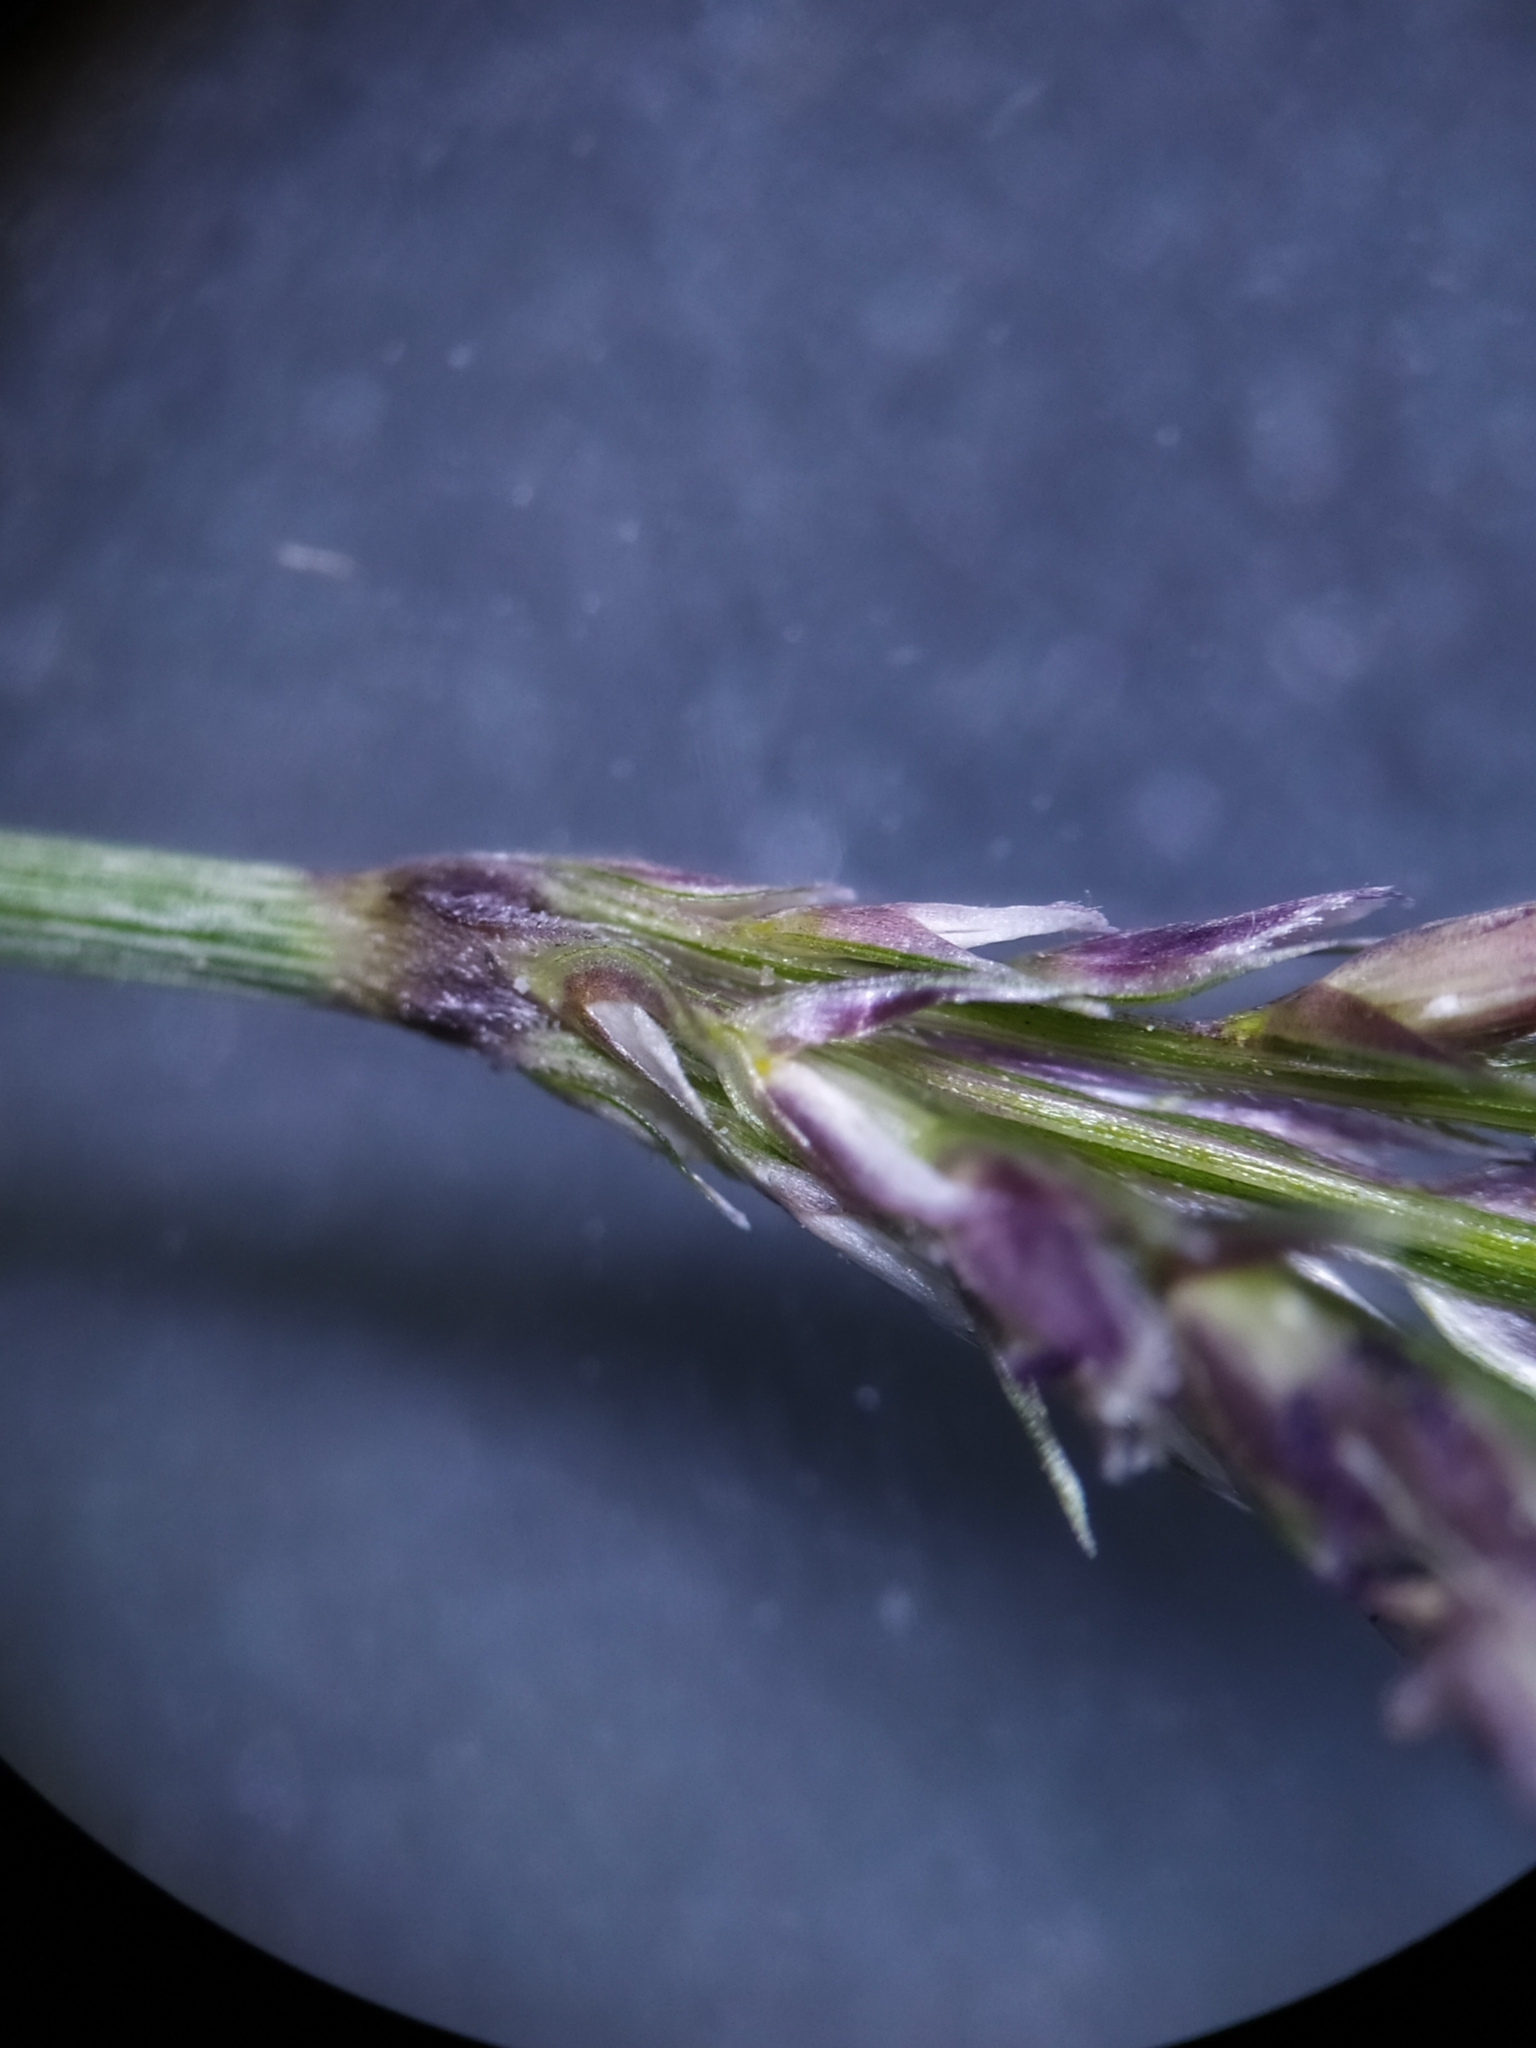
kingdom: Plantae
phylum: Tracheophyta
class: Liliopsida
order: Poales
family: Poaceae
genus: Cynodon
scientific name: Cynodon dactylon
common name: Bermuda grass
